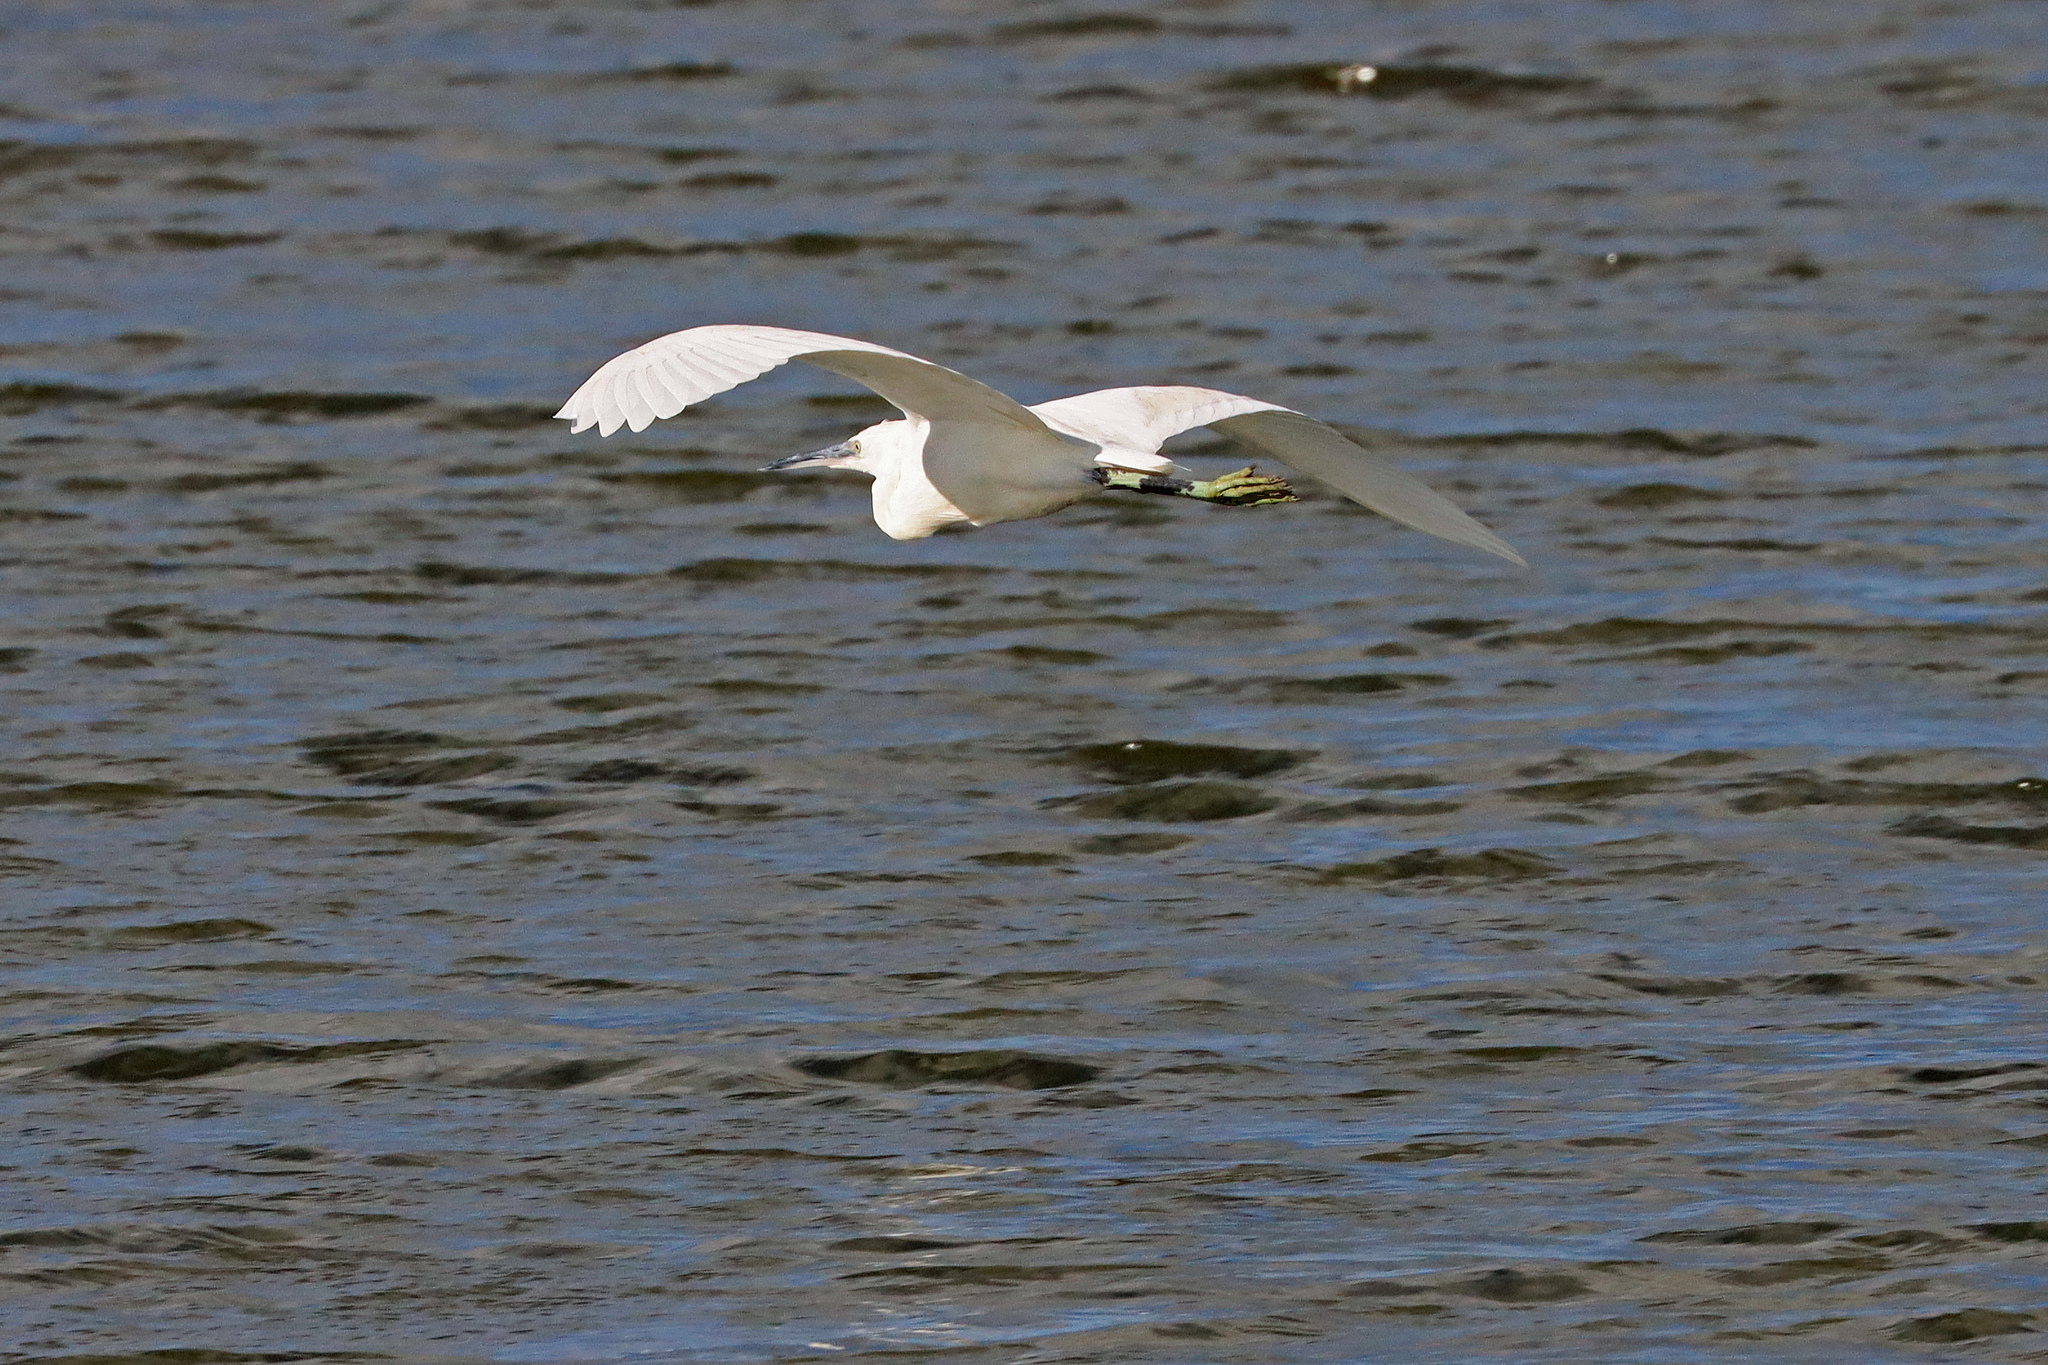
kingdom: Animalia
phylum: Chordata
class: Aves
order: Pelecaniformes
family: Ardeidae
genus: Egretta
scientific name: Egretta garzetta
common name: Little egret
